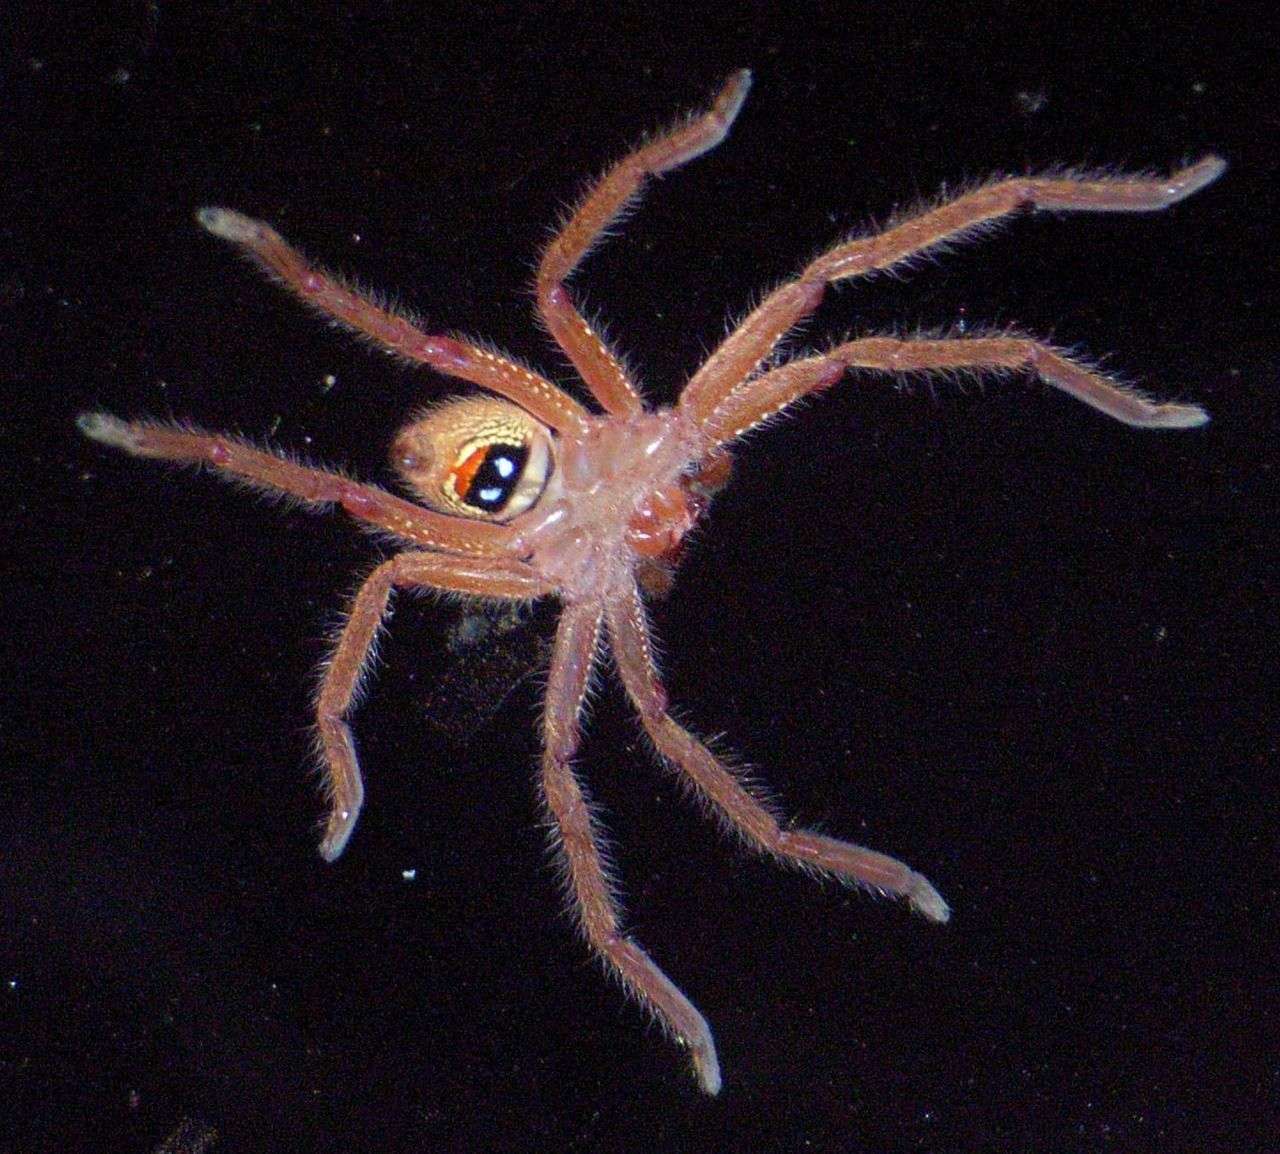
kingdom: Animalia
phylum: Arthropoda
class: Arachnida
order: Araneae
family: Sparassidae
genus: Neosparassus
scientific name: Neosparassus diana
